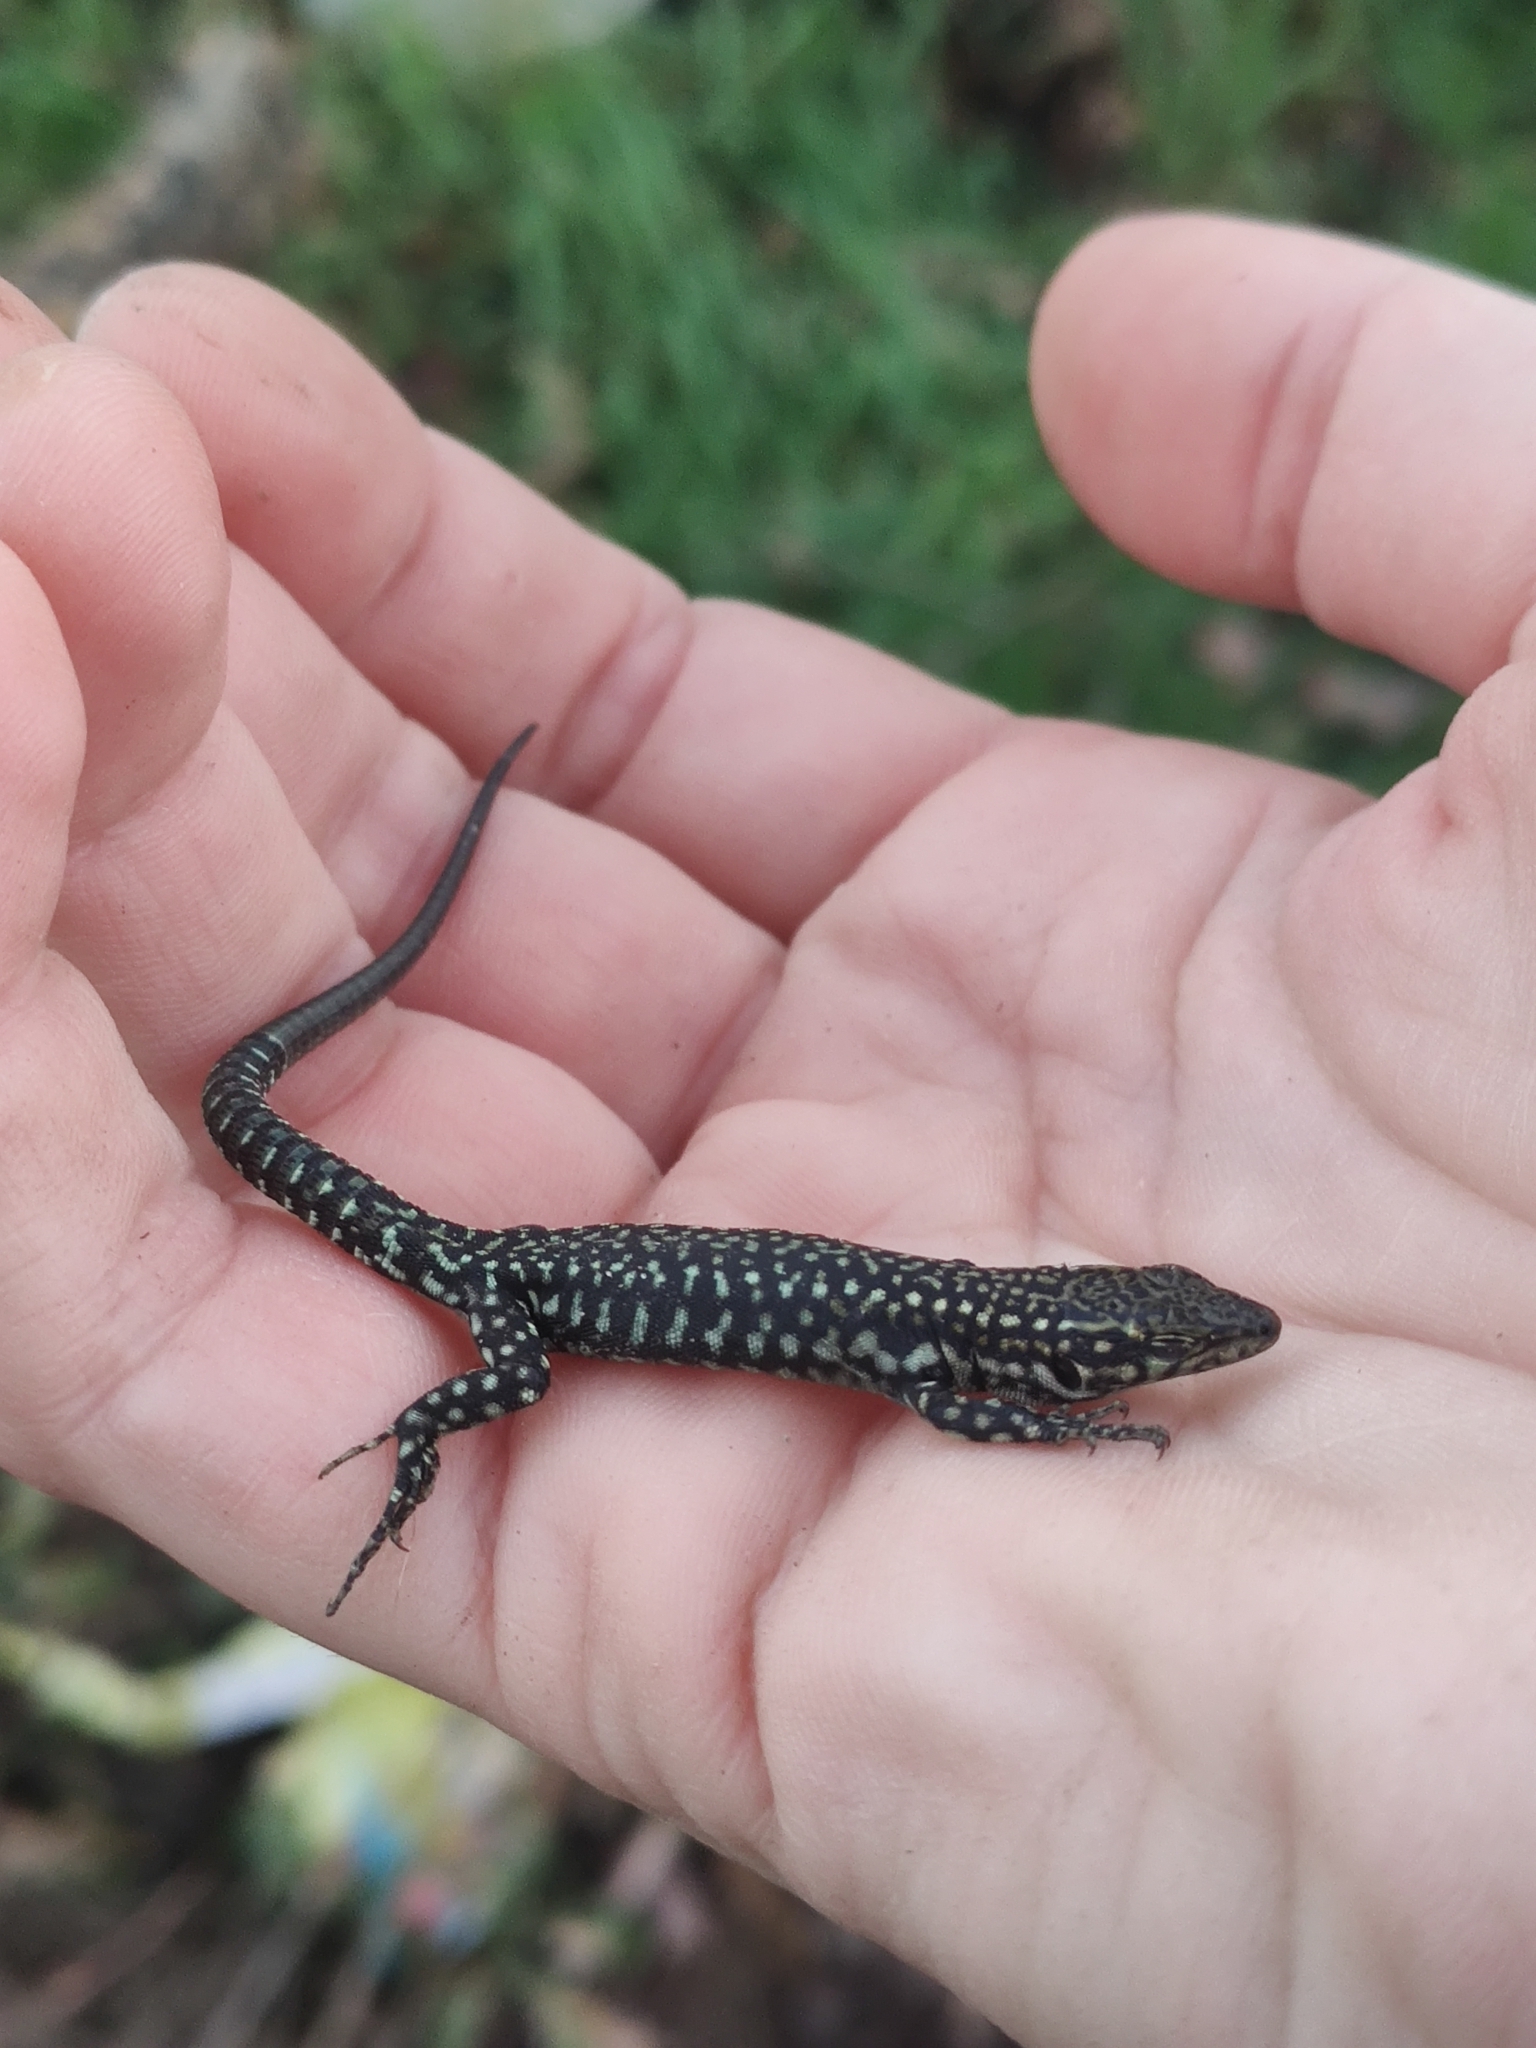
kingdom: Animalia
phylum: Chordata
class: Squamata
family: Lacertidae
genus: Podarcis
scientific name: Podarcis
